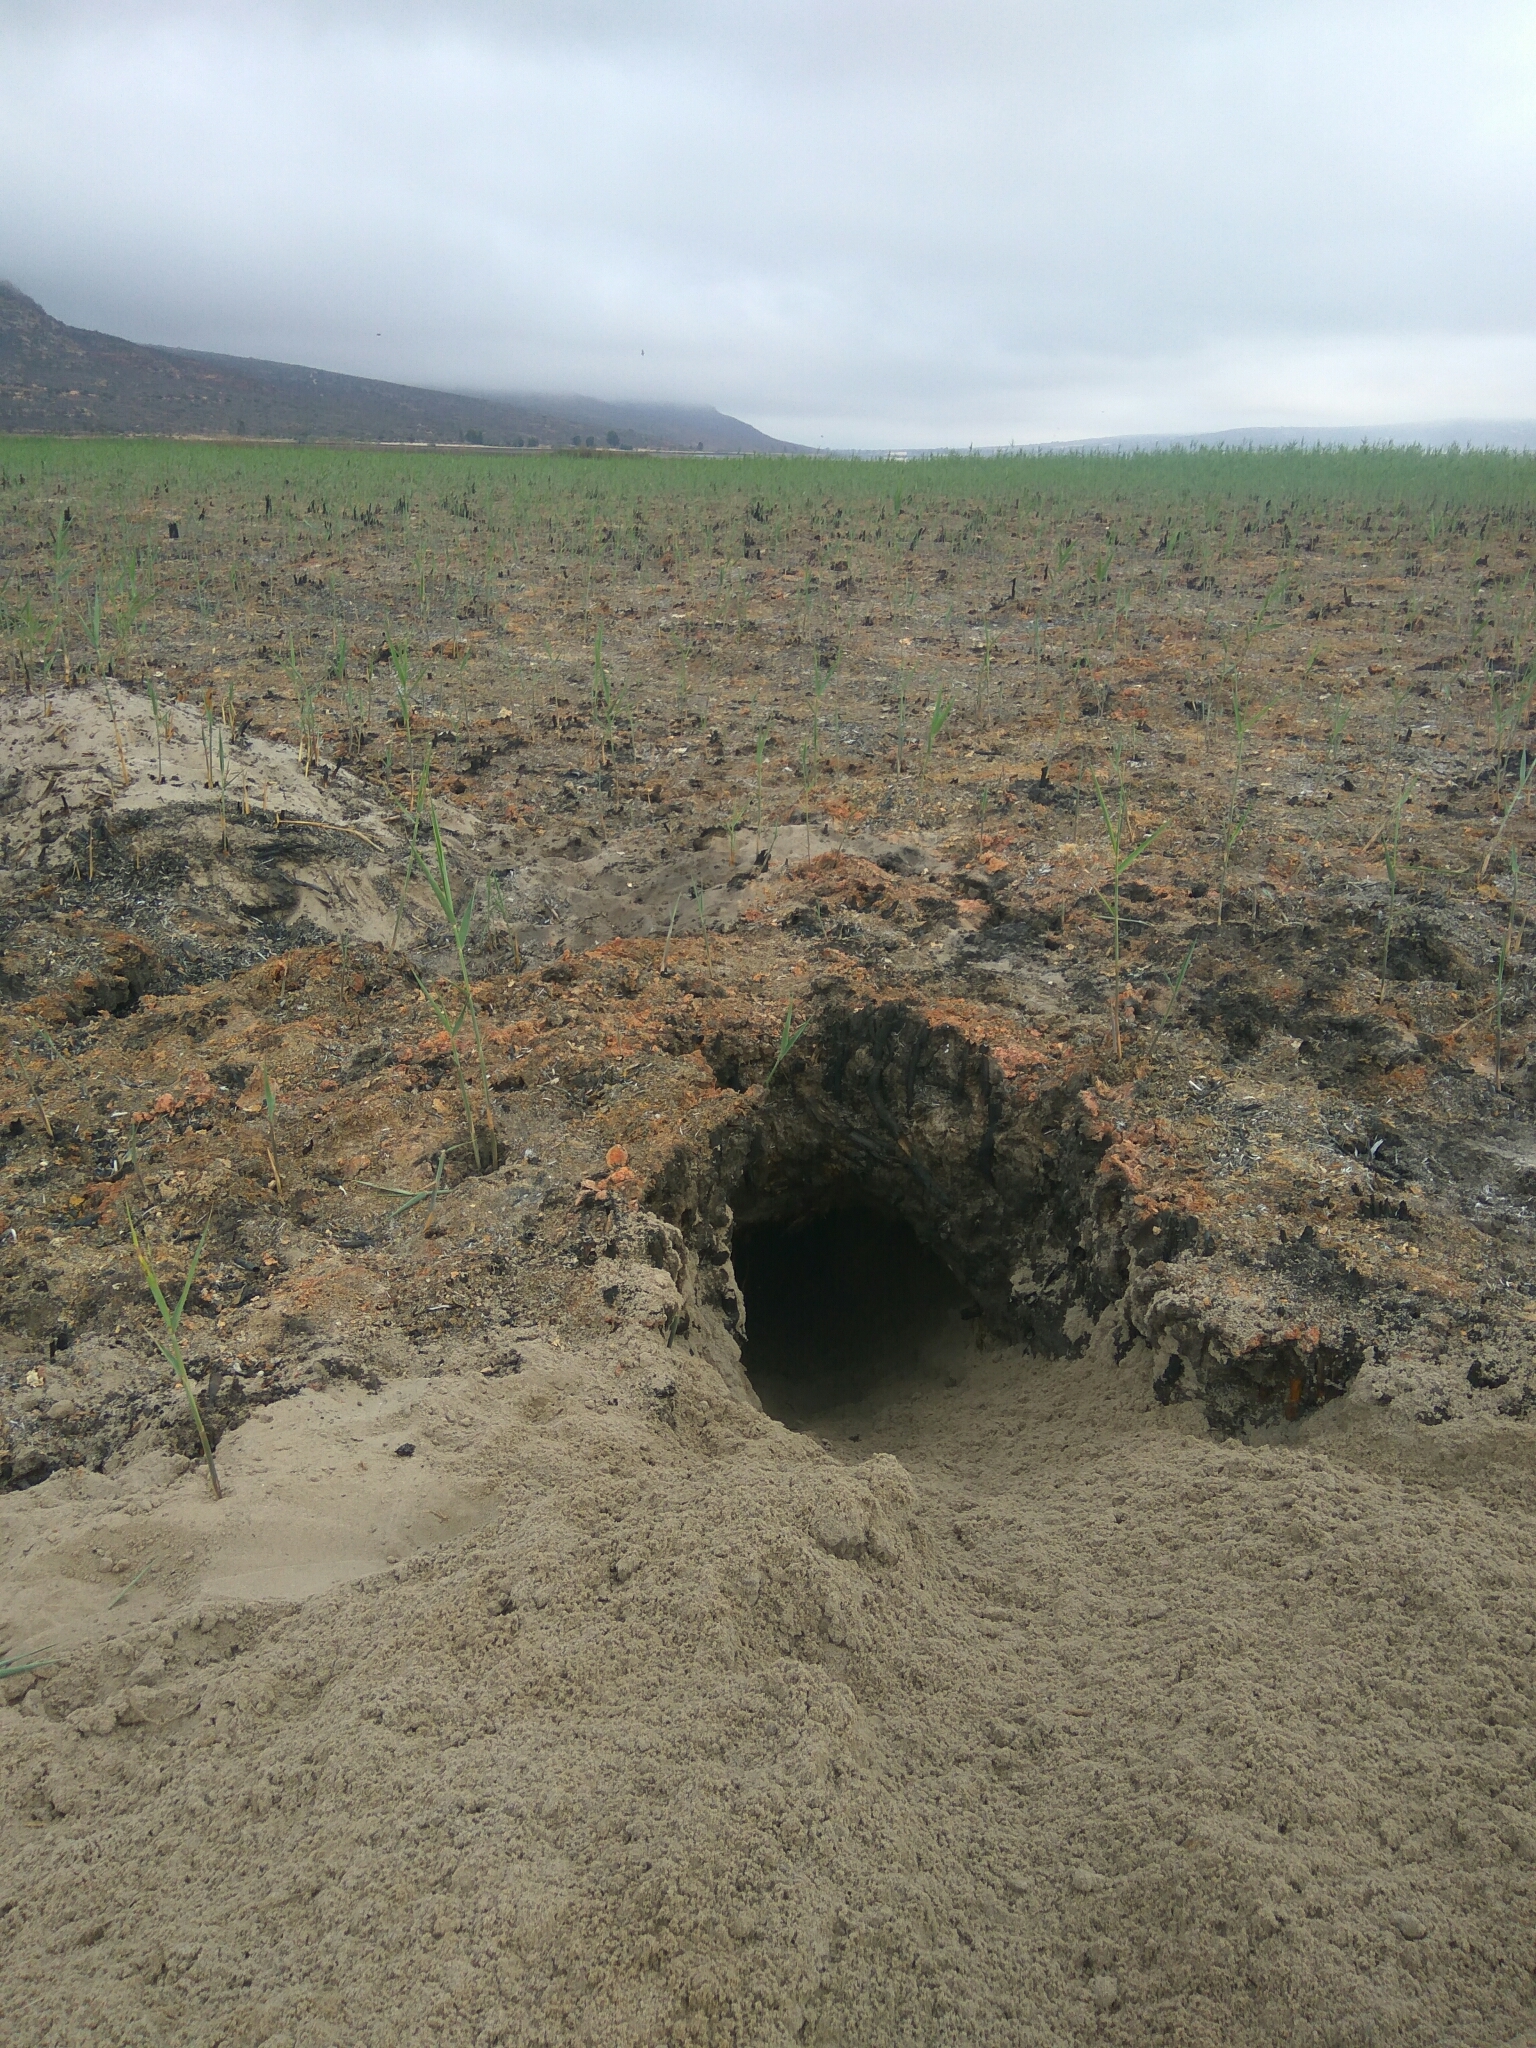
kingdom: Animalia
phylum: Chordata
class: Mammalia
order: Tubulidentata
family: Orycteropodidae
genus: Orycteropus
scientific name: Orycteropus afer
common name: Aardvark
